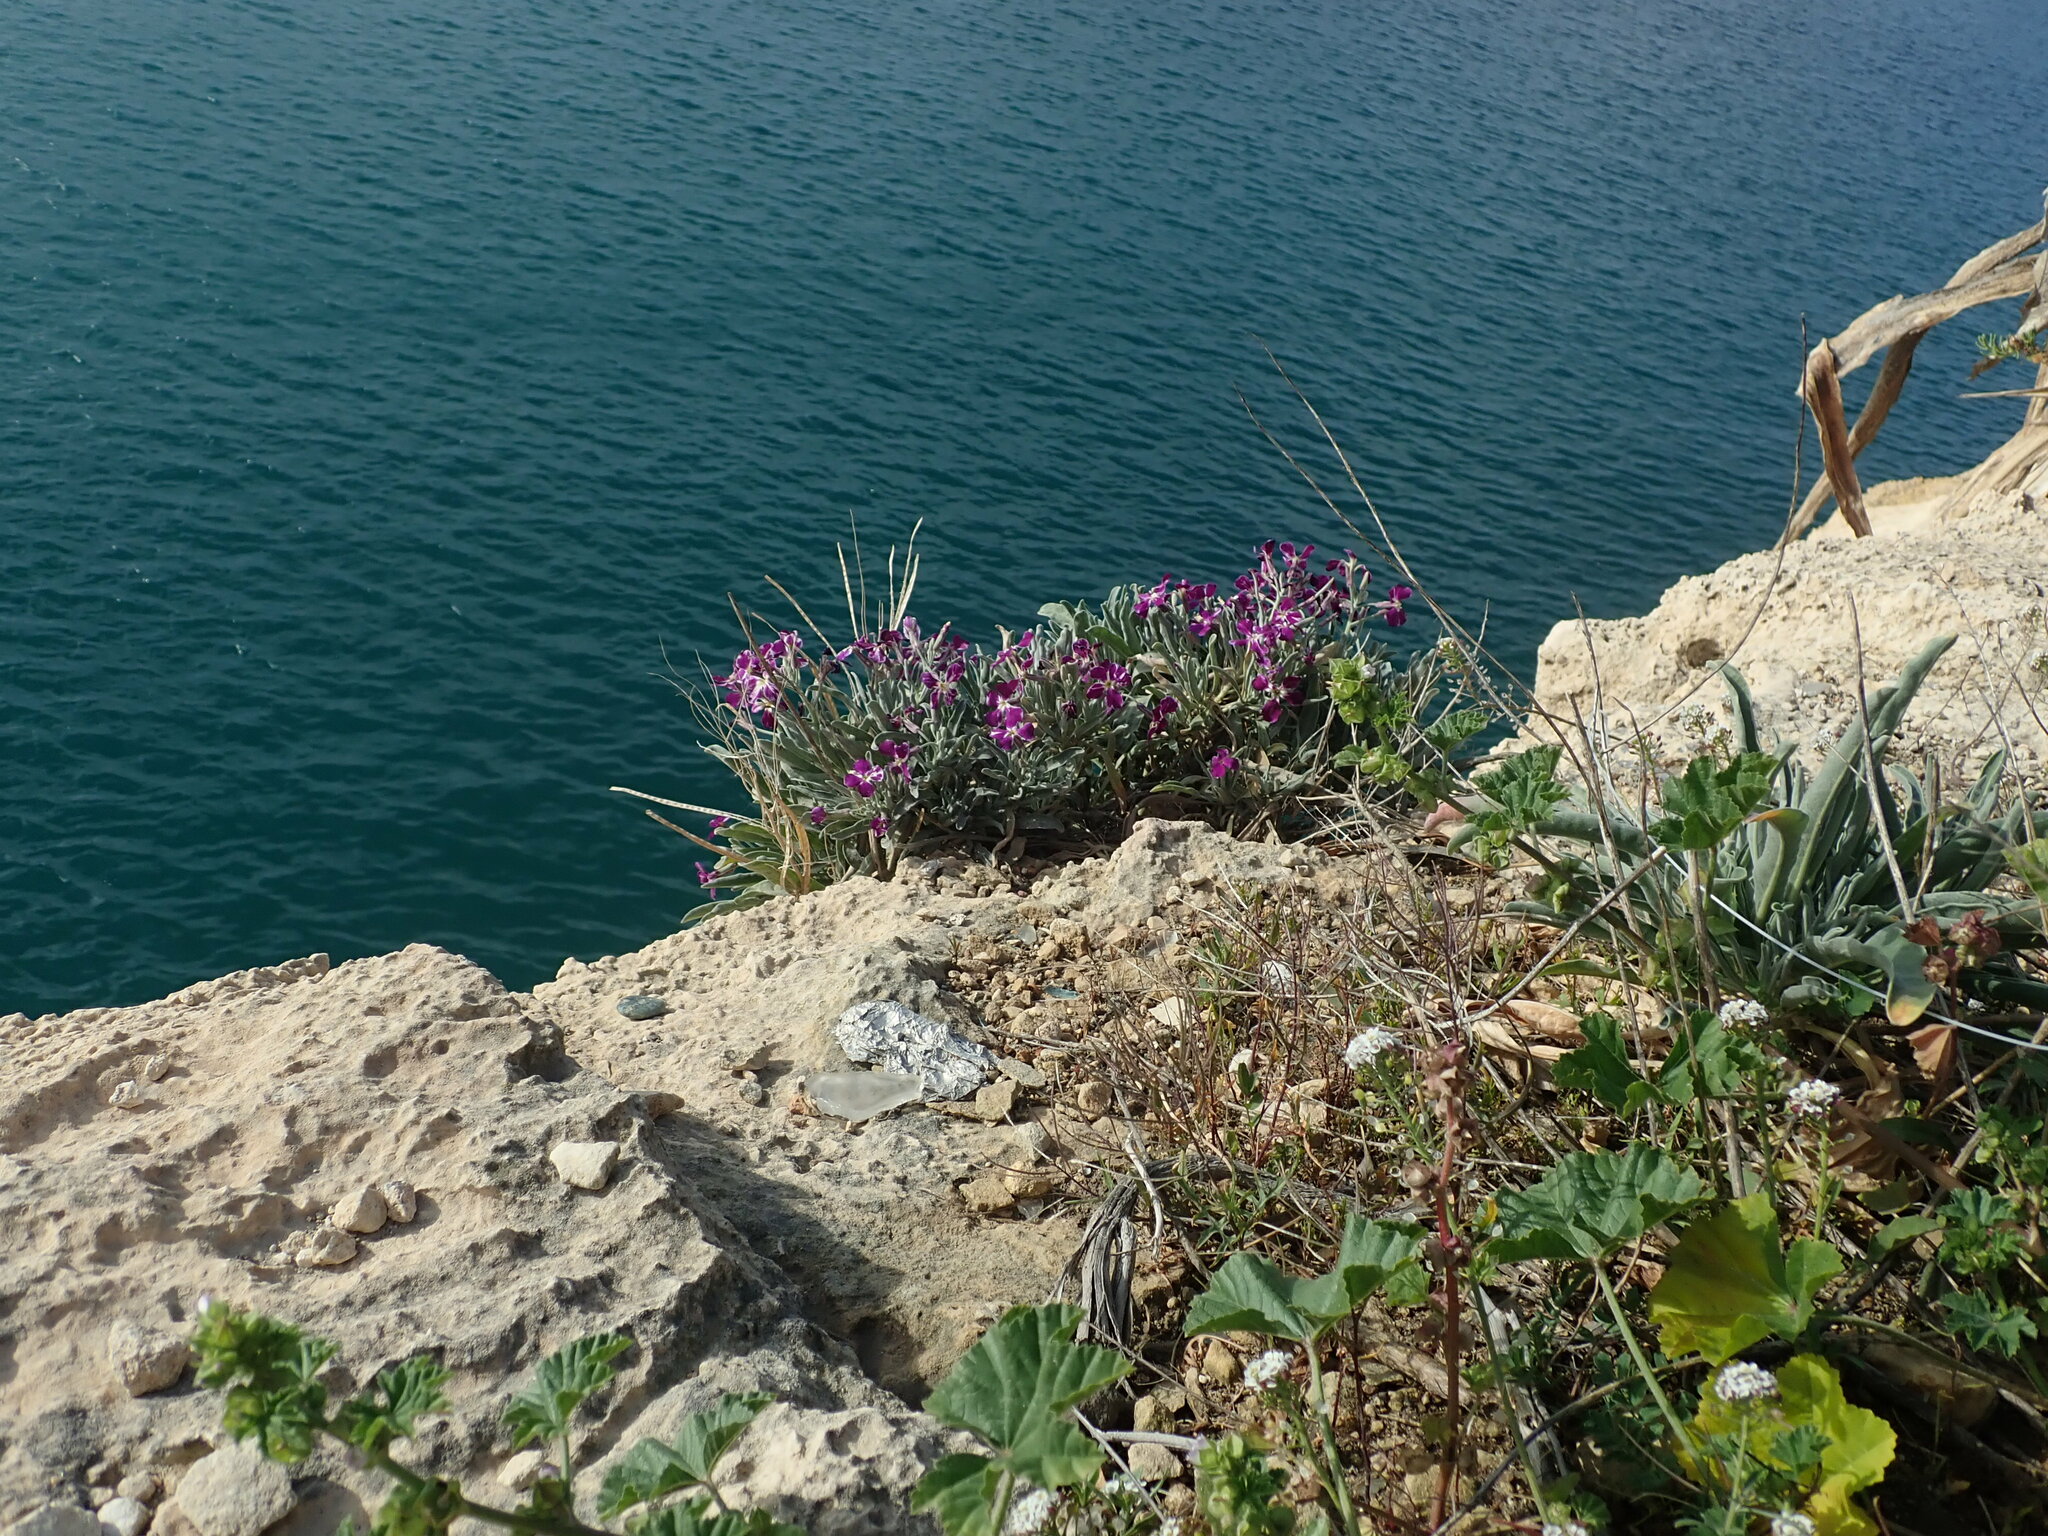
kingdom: Plantae
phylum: Tracheophyta
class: Magnoliopsida
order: Brassicales
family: Brassicaceae
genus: Matthiola
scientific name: Matthiola incana
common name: Hoary stock
